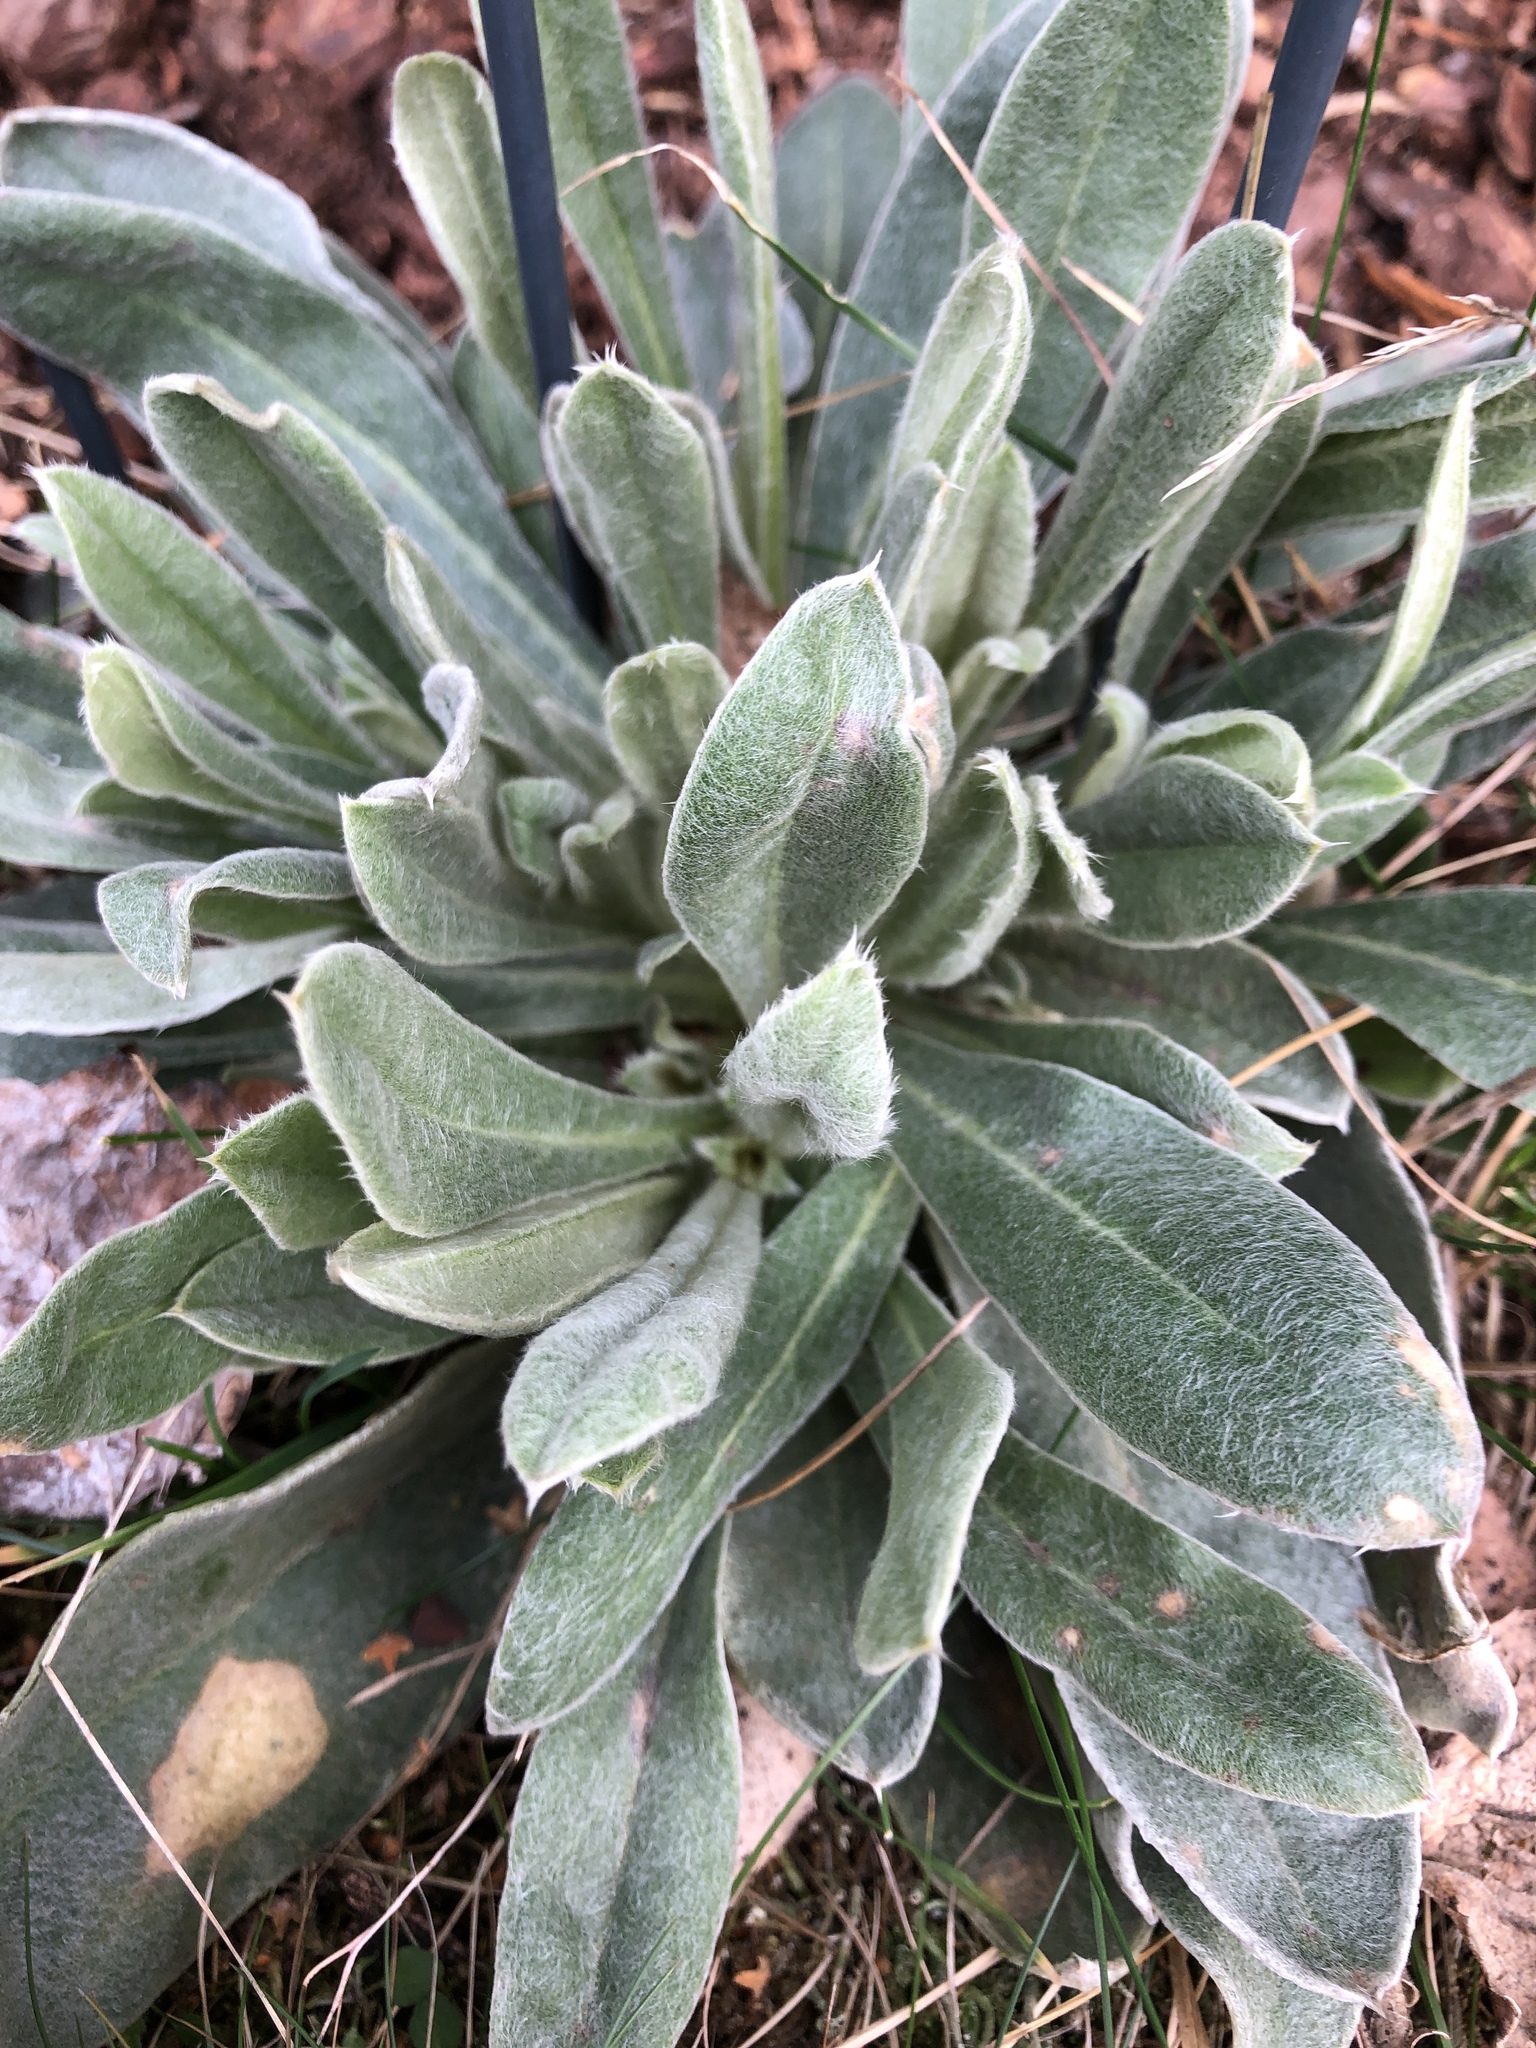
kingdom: Plantae
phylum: Tracheophyta
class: Magnoliopsida
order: Caryophyllales
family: Caryophyllaceae
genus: Silene
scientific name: Silene coronaria
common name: Rose campion
